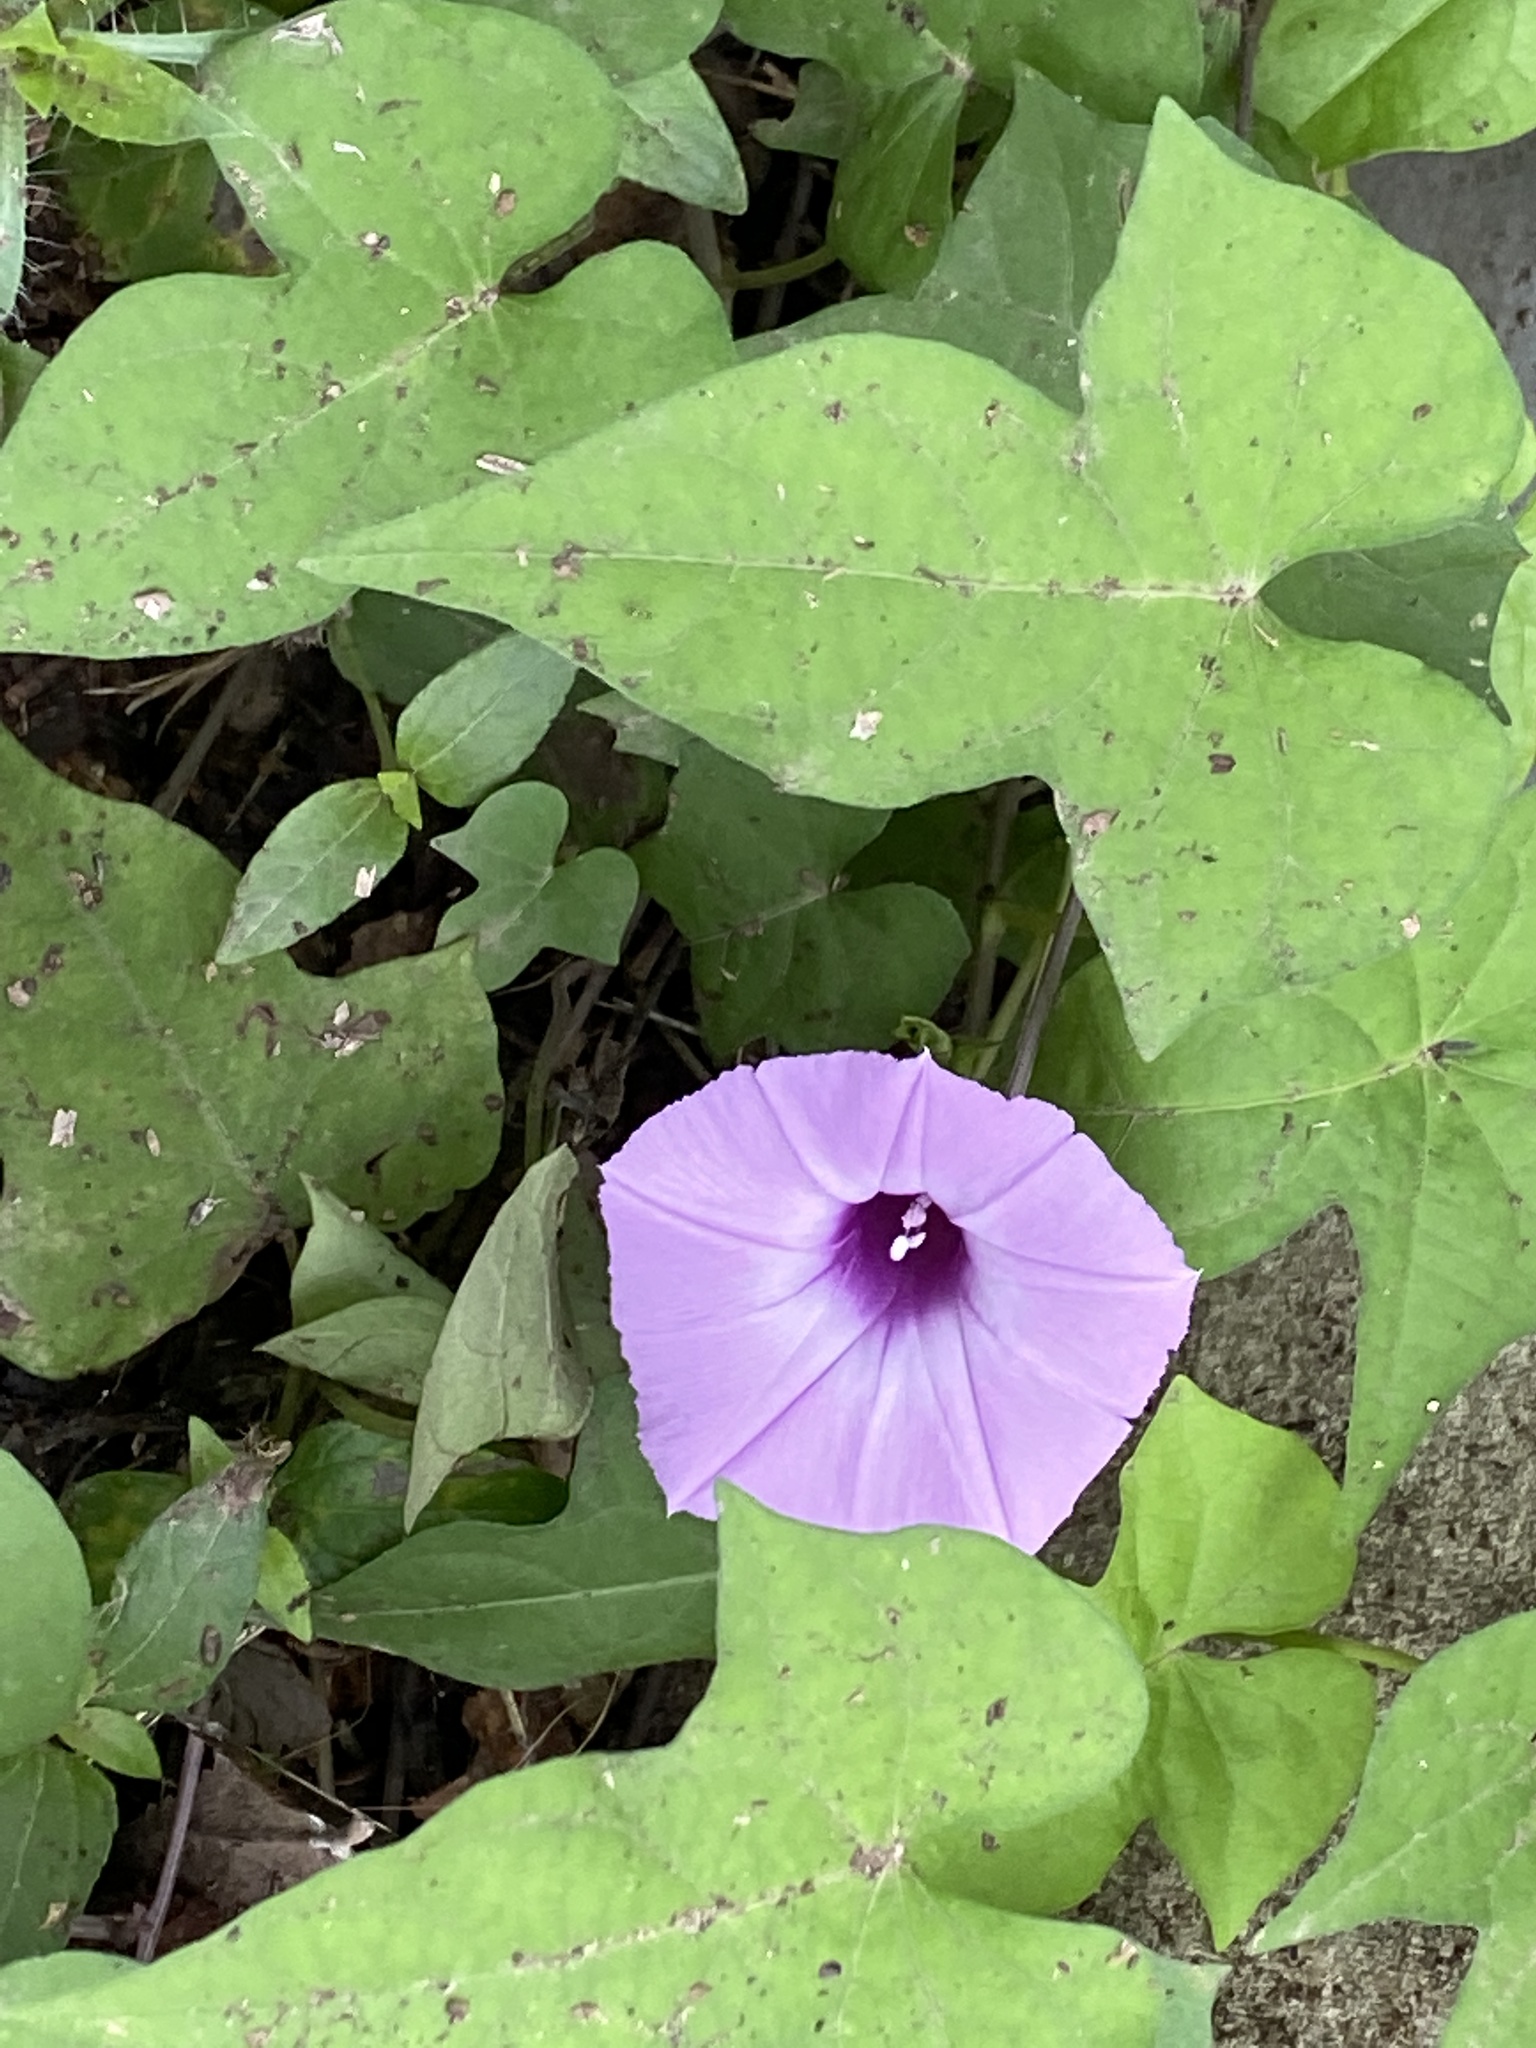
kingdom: Plantae
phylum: Tracheophyta
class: Magnoliopsida
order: Solanales
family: Convolvulaceae
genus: Ipomoea
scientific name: Ipomoea cordatotriloba
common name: Cotton morning glory
